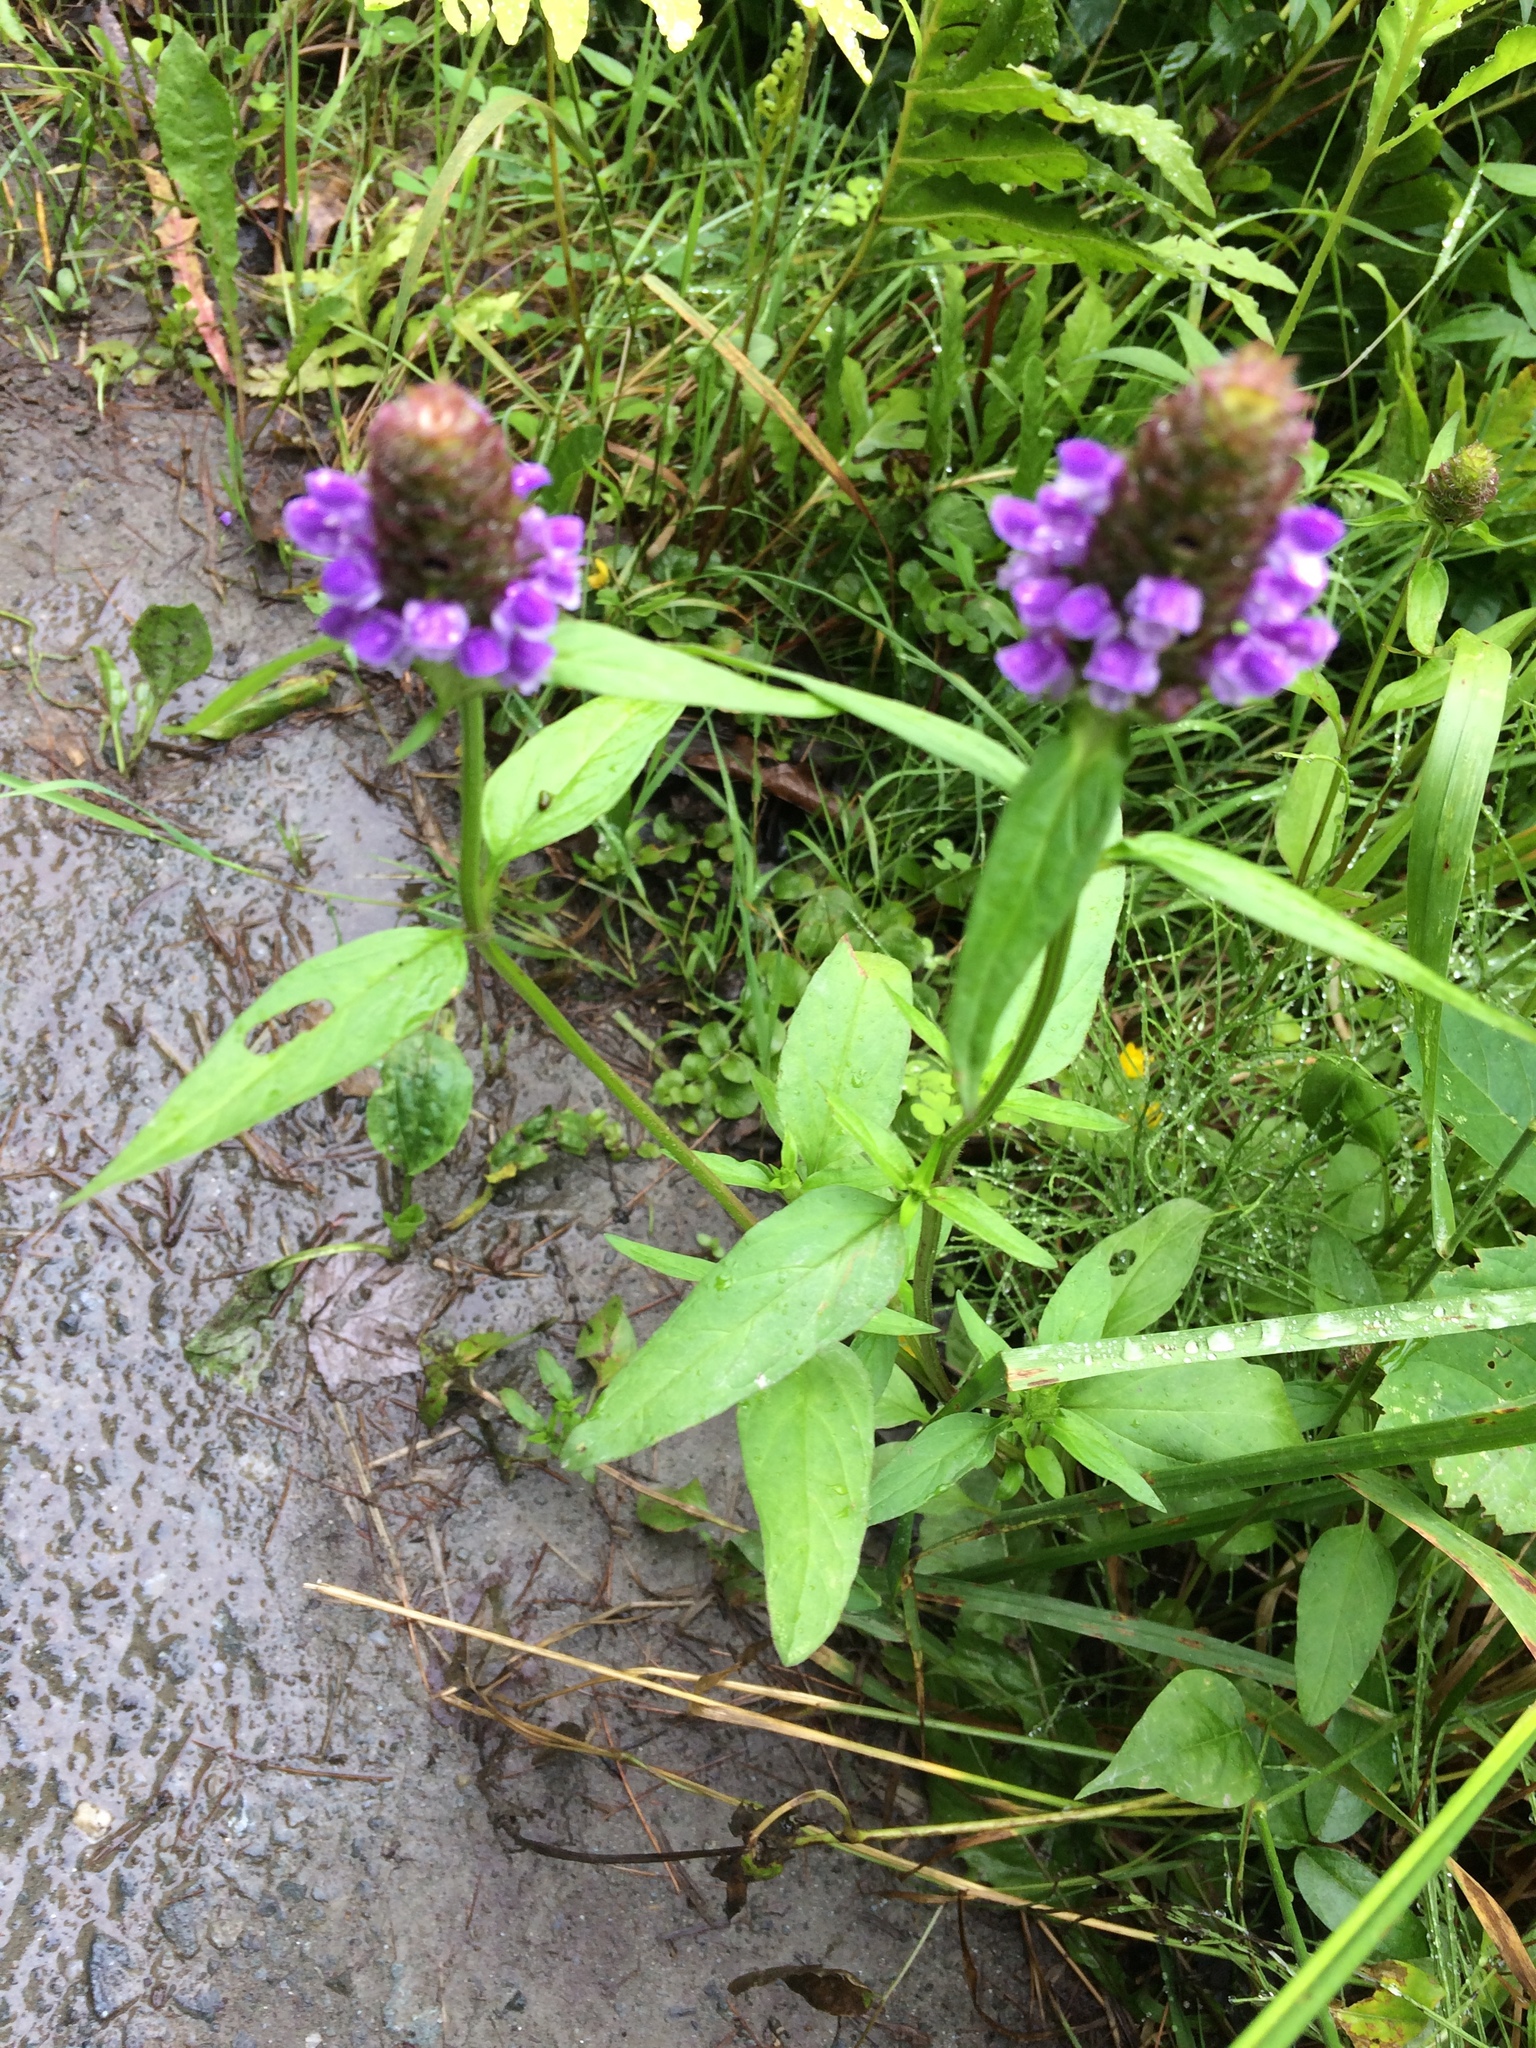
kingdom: Plantae
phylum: Tracheophyta
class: Magnoliopsida
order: Lamiales
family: Lamiaceae
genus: Prunella
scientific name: Prunella vulgaris
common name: Heal-all
